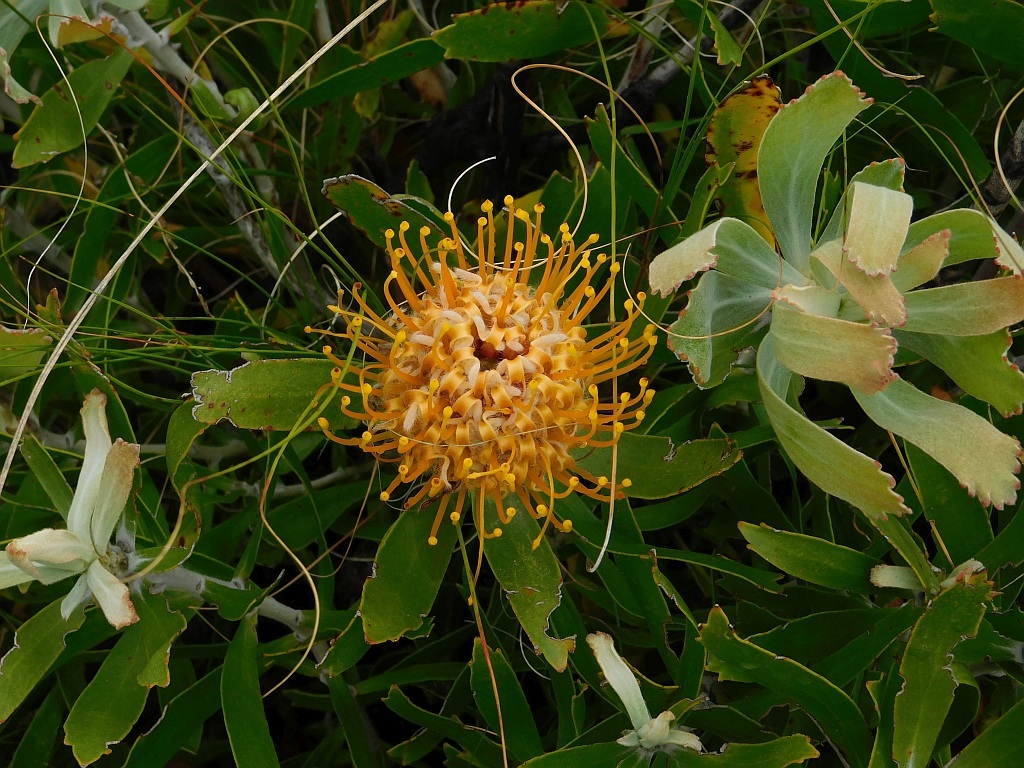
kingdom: Plantae
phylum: Tracheophyta
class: Magnoliopsida
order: Proteales
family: Proteaceae
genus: Leucospermum
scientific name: Leucospermum cuneiforme
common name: Common pincushion
